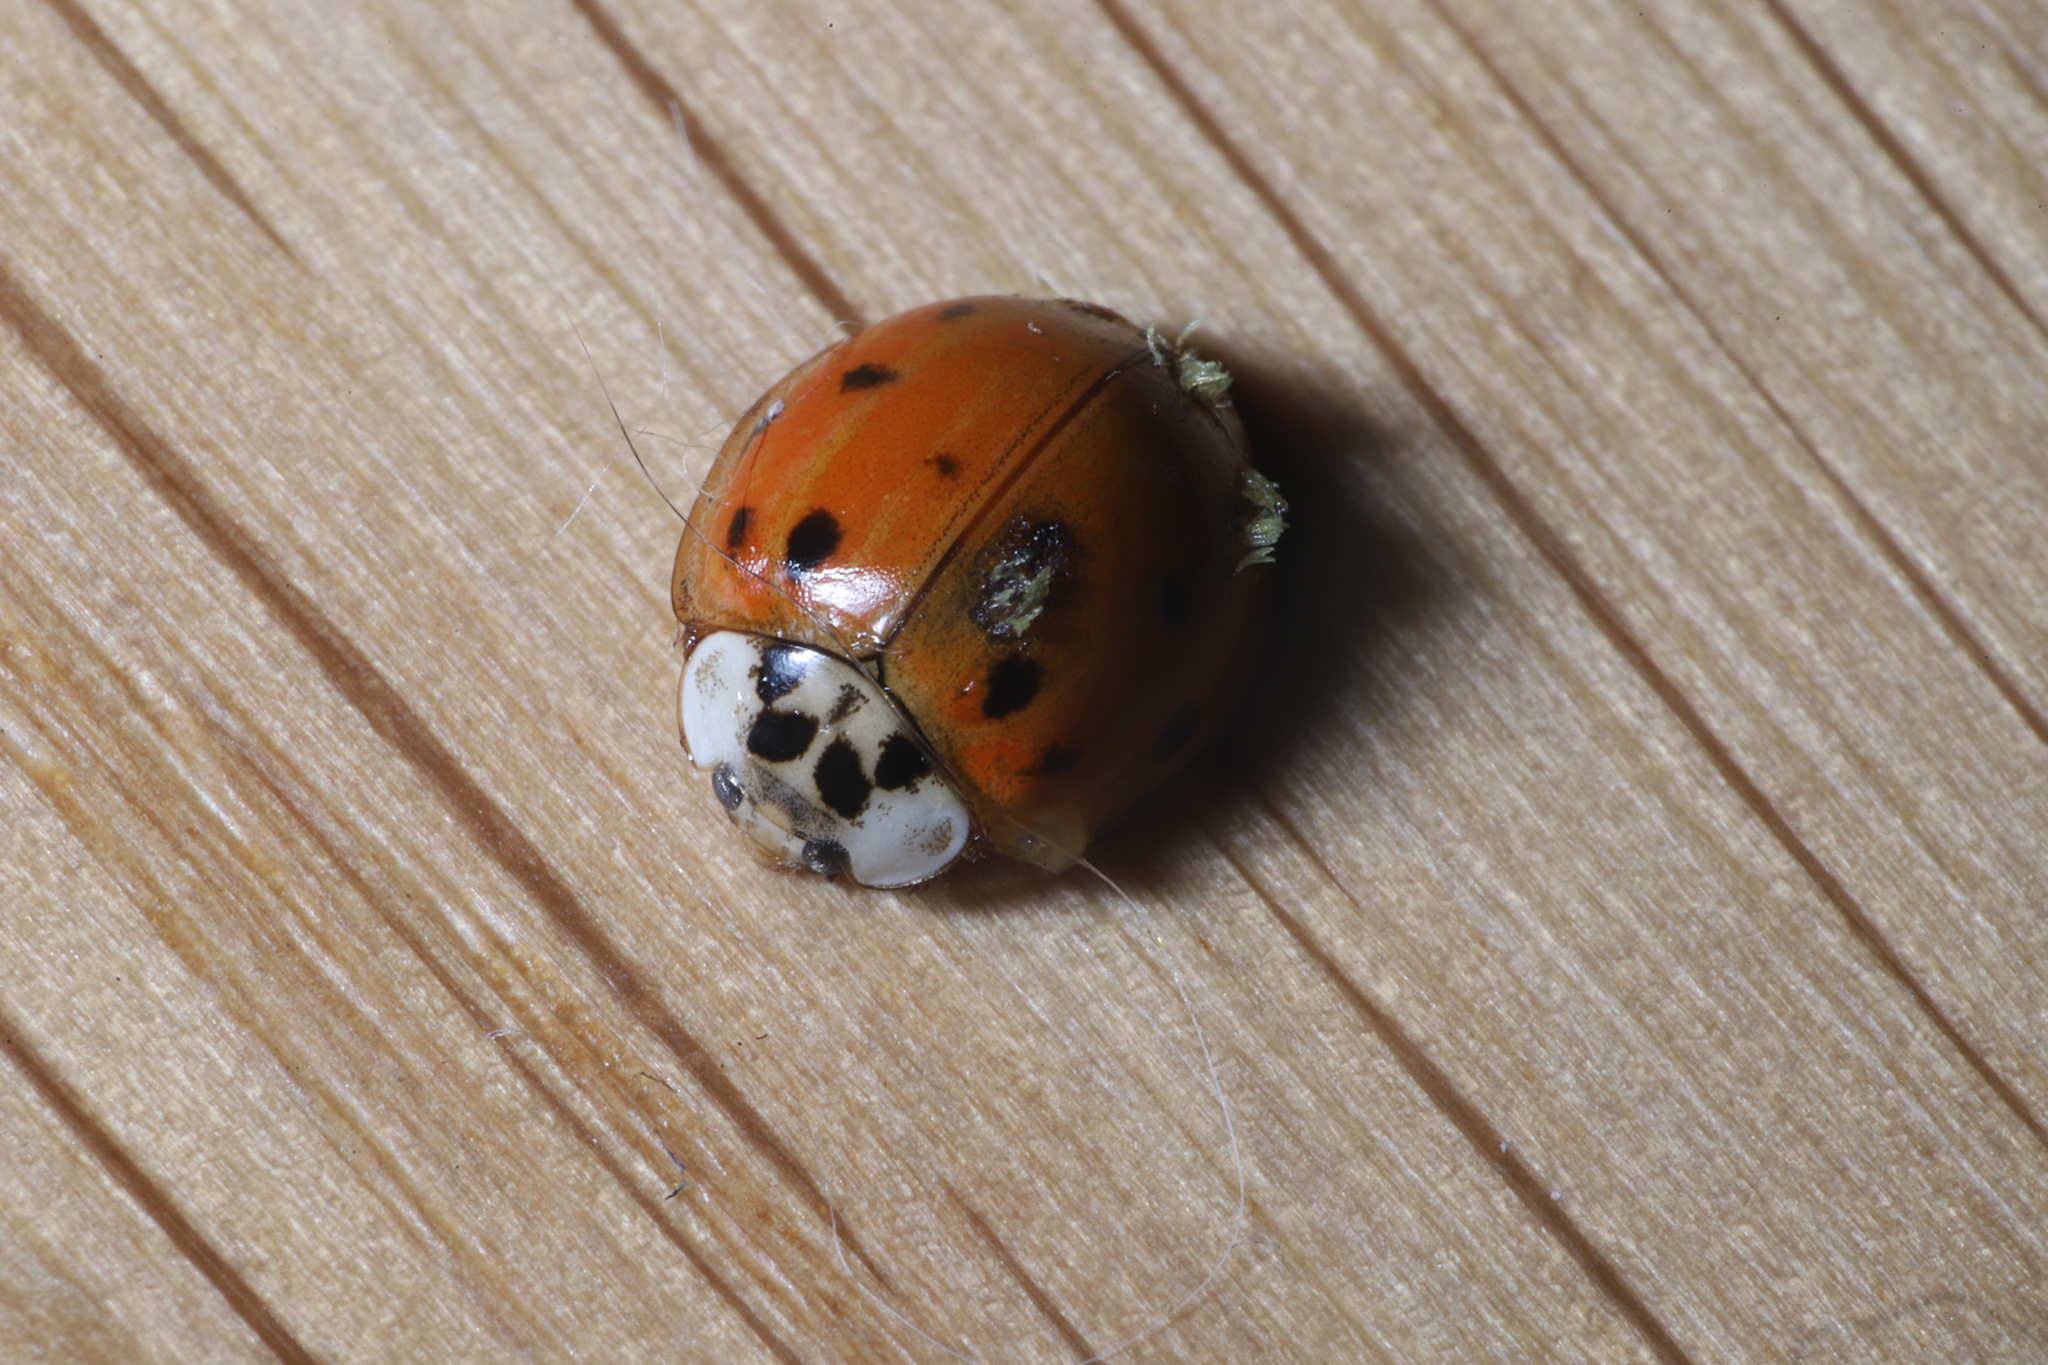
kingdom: Fungi
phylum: Ascomycota
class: Laboulbeniomycetes
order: Laboulbeniales
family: Laboulbeniaceae
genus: Hesperomyces
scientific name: Hesperomyces harmoniae
